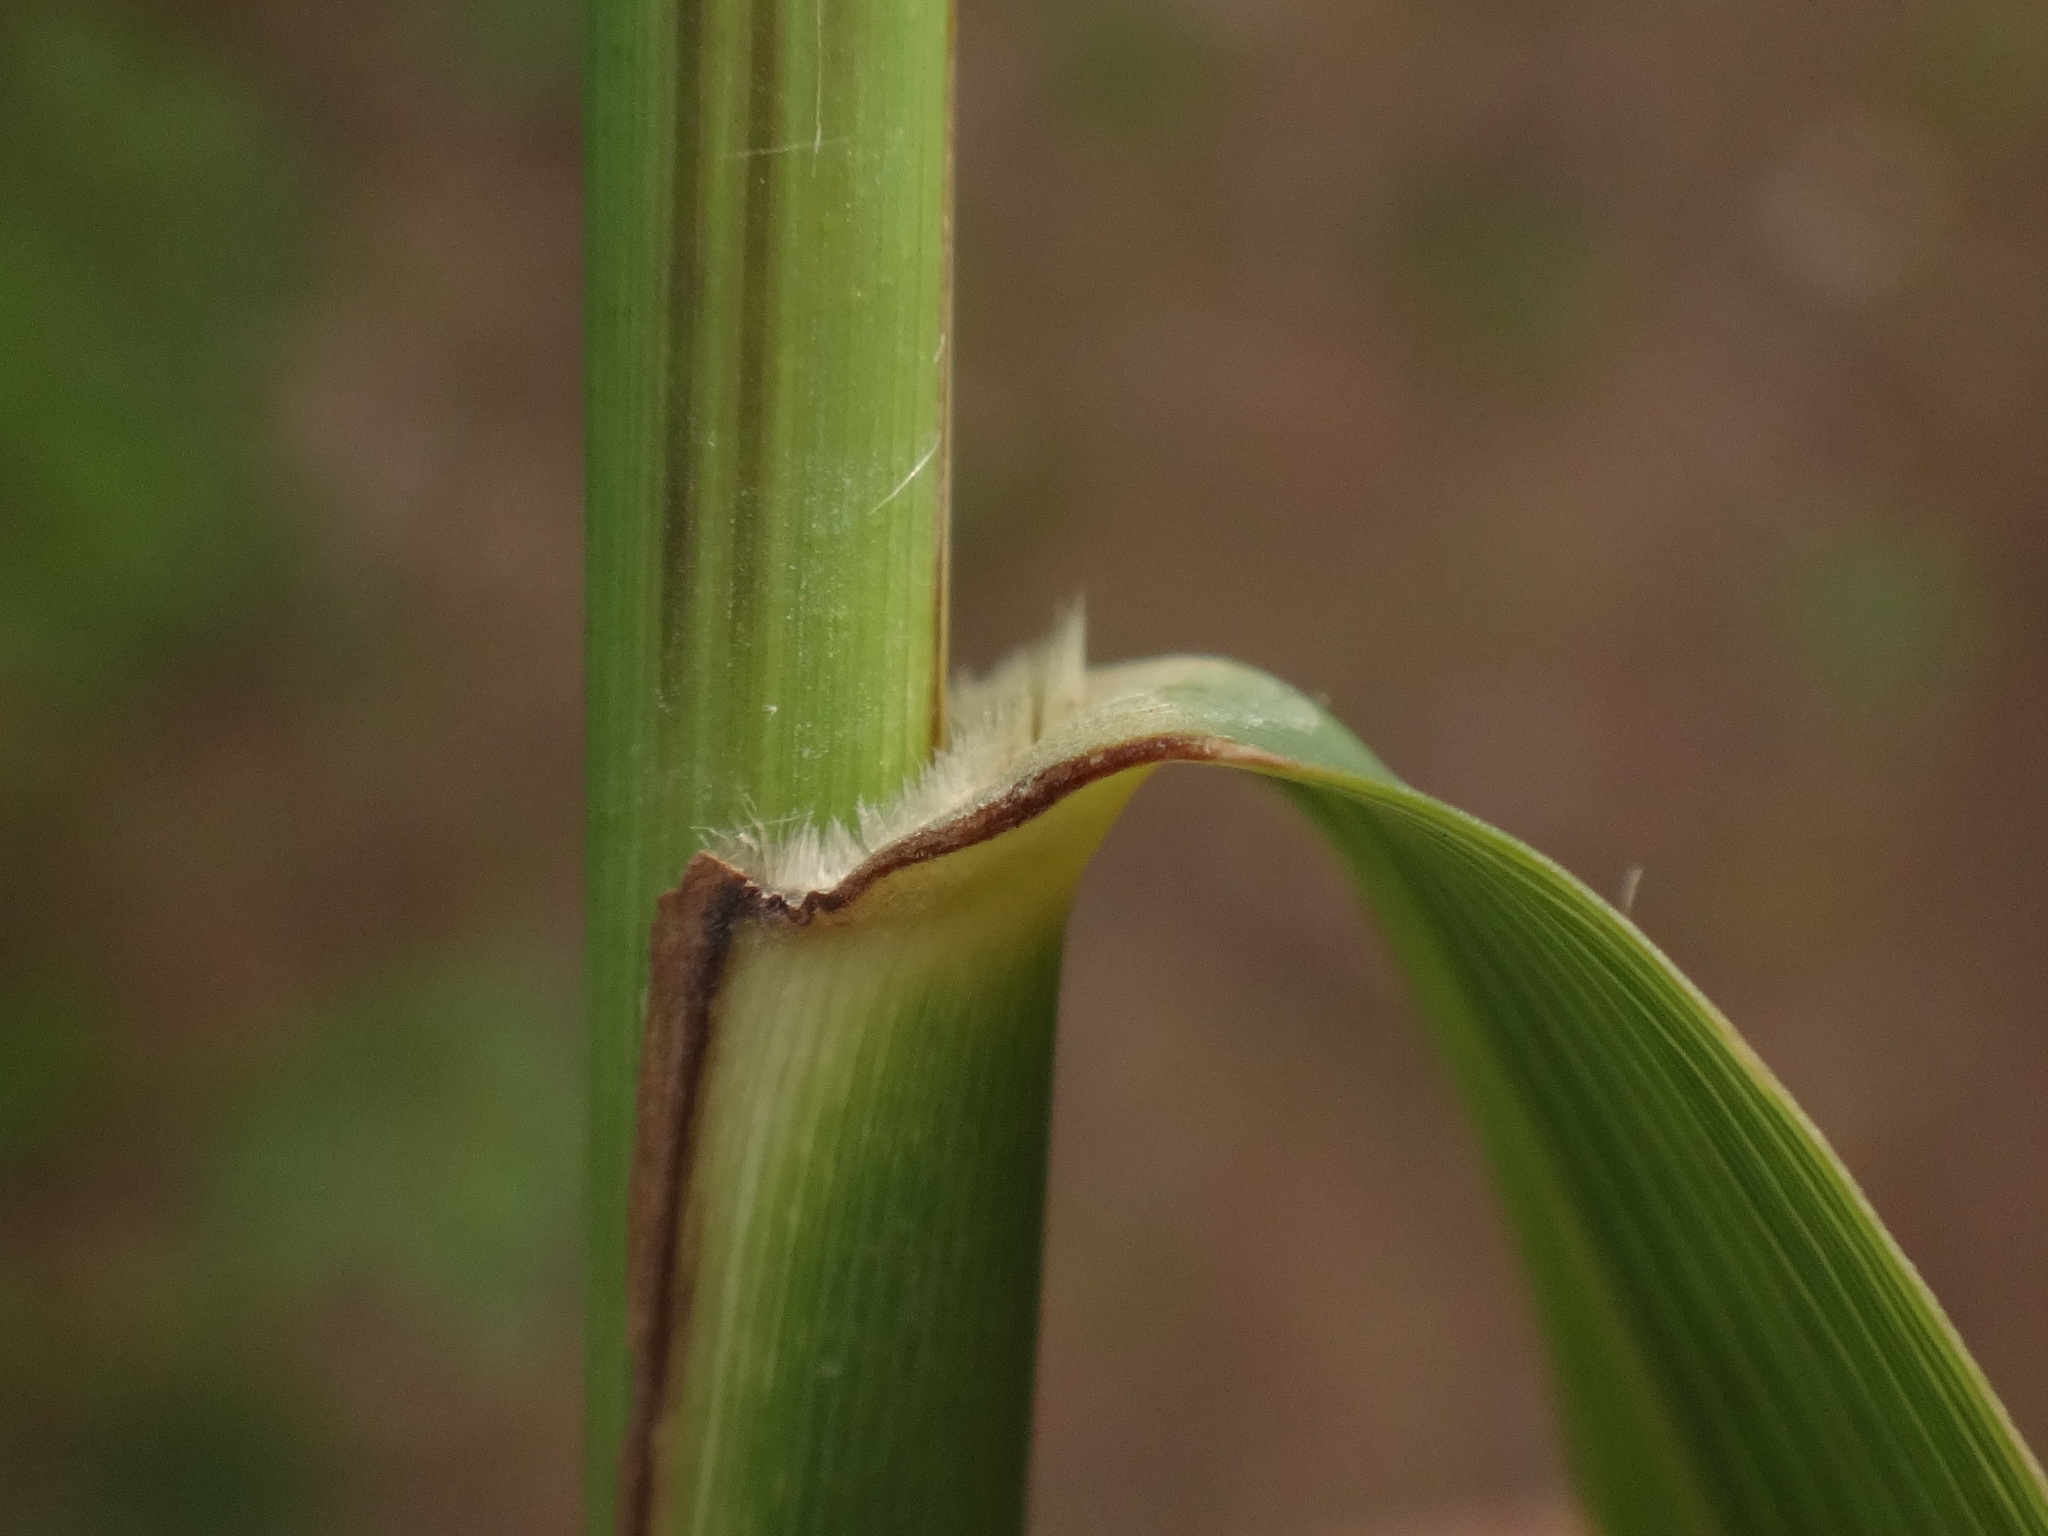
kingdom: Plantae
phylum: Tracheophyta
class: Liliopsida
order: Poales
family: Poaceae
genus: Phragmites
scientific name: Phragmites australis
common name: Common reed
